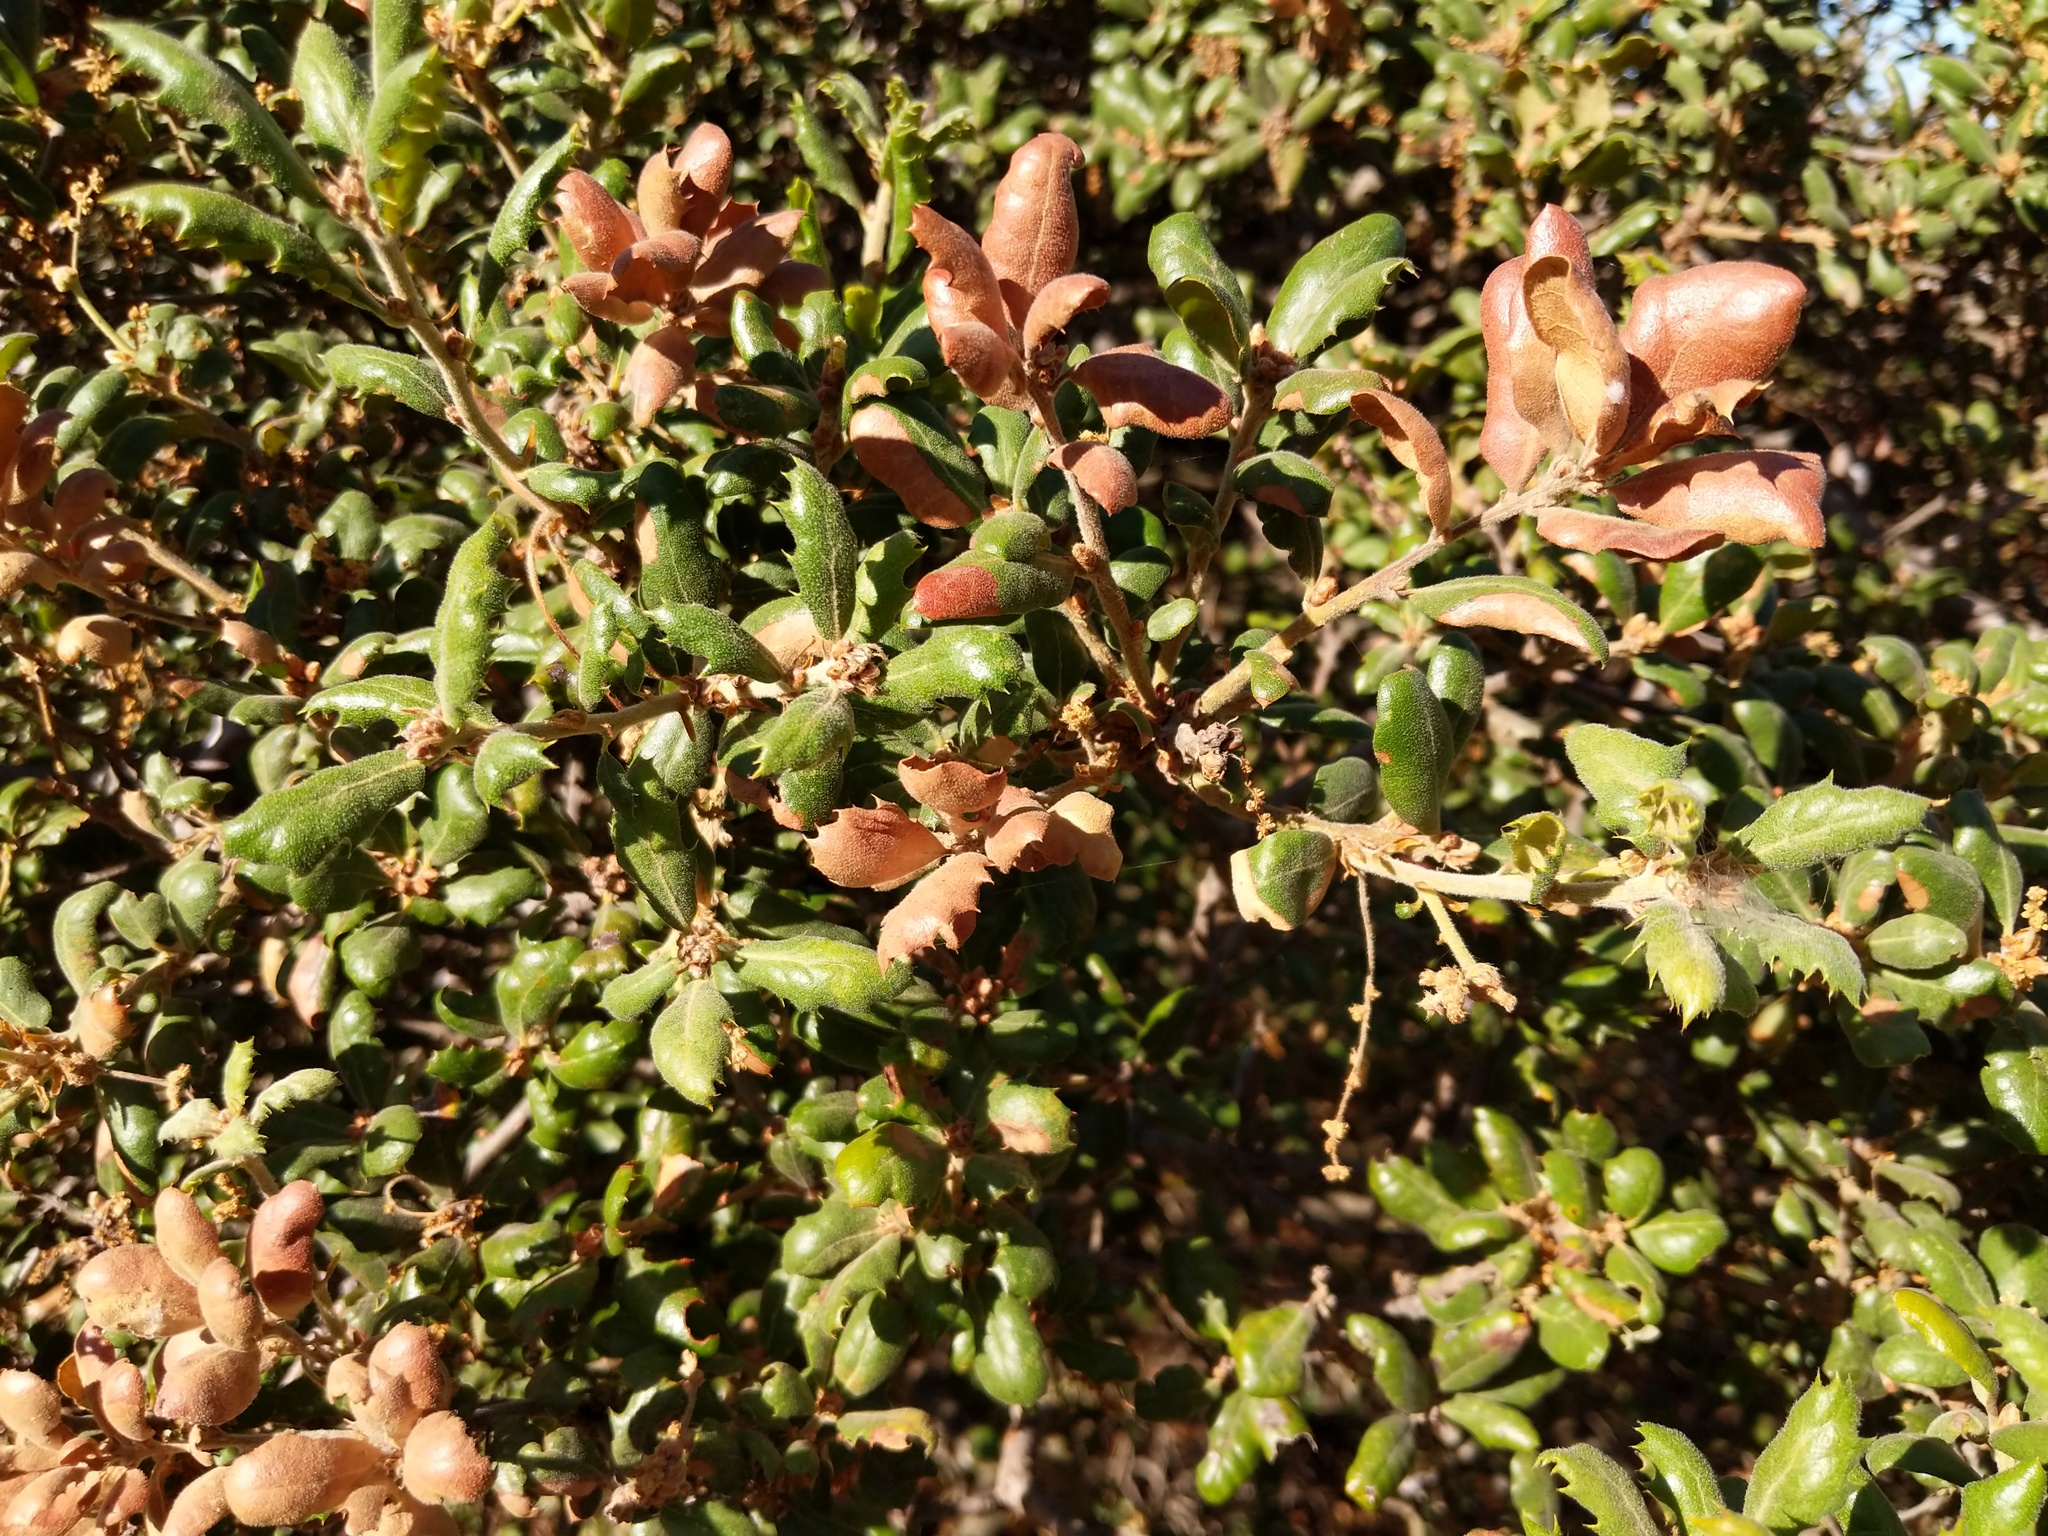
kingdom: Plantae
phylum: Tracheophyta
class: Magnoliopsida
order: Fagales
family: Fagaceae
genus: Quercus
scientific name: Quercus durata
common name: Leather oak
